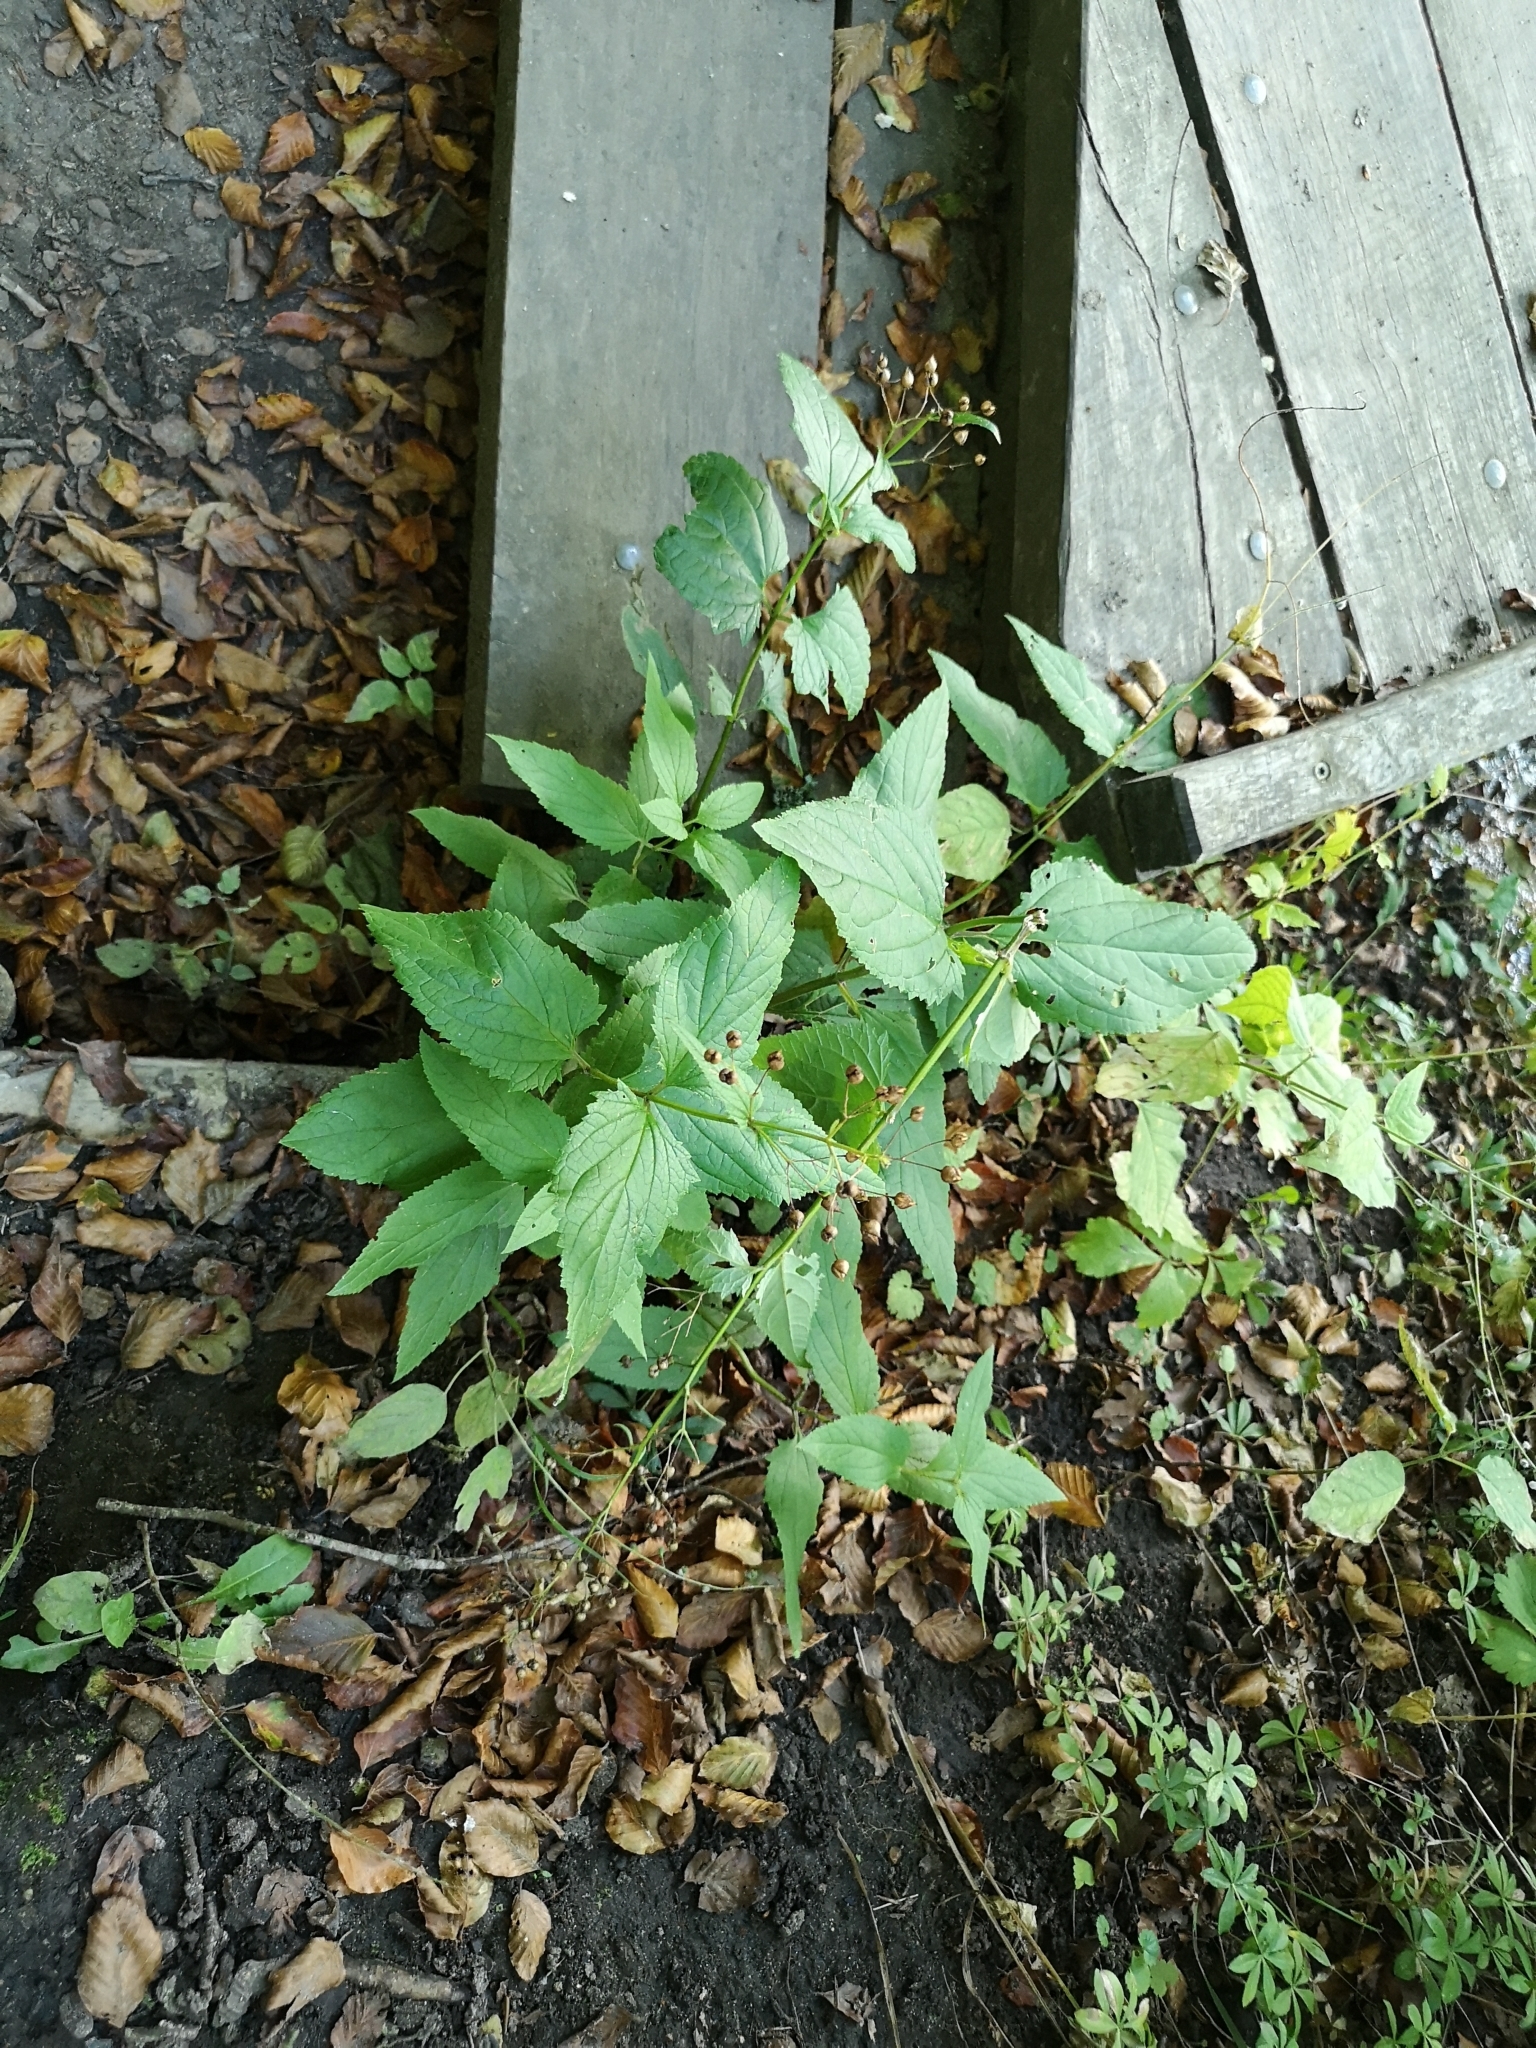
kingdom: Plantae
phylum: Tracheophyta
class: Magnoliopsida
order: Lamiales
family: Scrophulariaceae
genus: Scrophularia
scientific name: Scrophularia nodosa
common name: Common figwort
